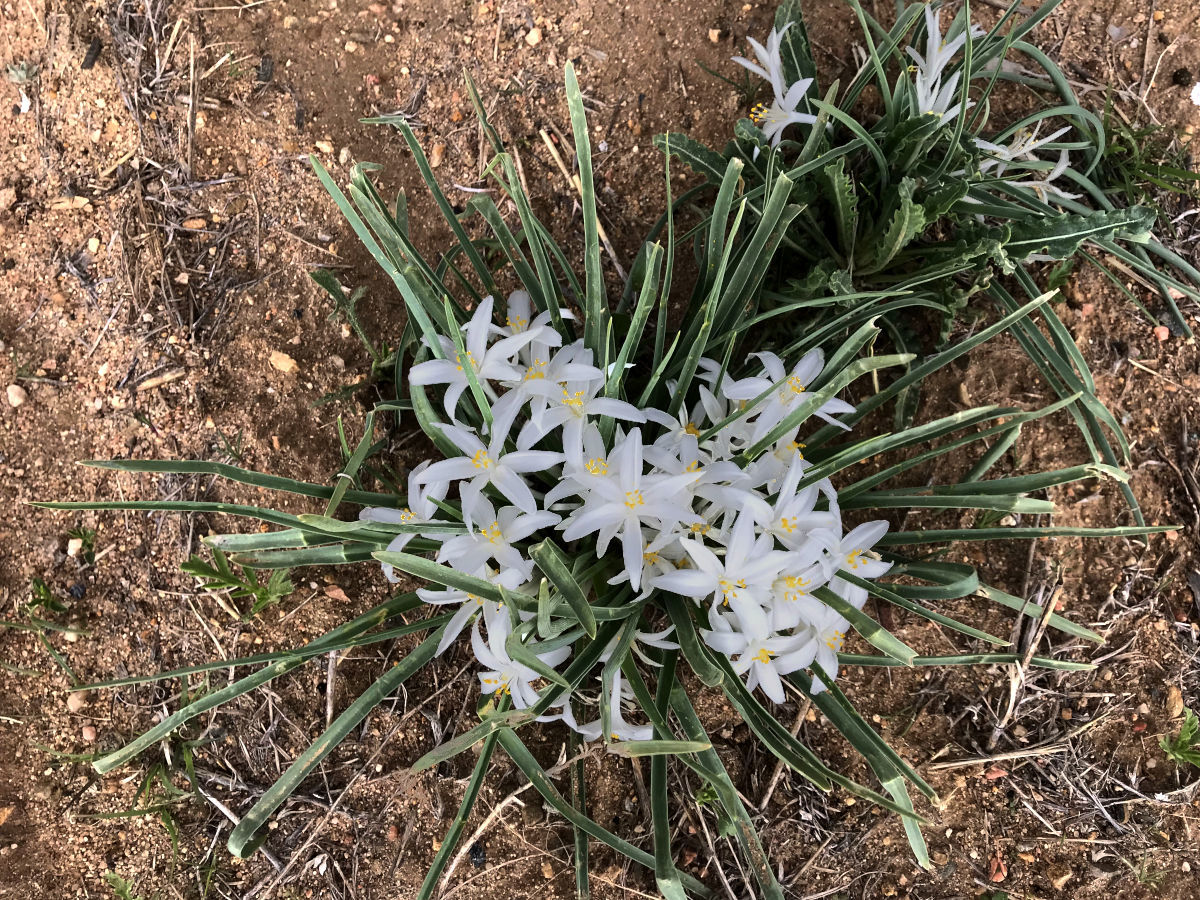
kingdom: Plantae
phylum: Tracheophyta
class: Liliopsida
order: Asparagales
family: Asparagaceae
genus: Leucocrinum
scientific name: Leucocrinum montanum
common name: Mountain-lily
